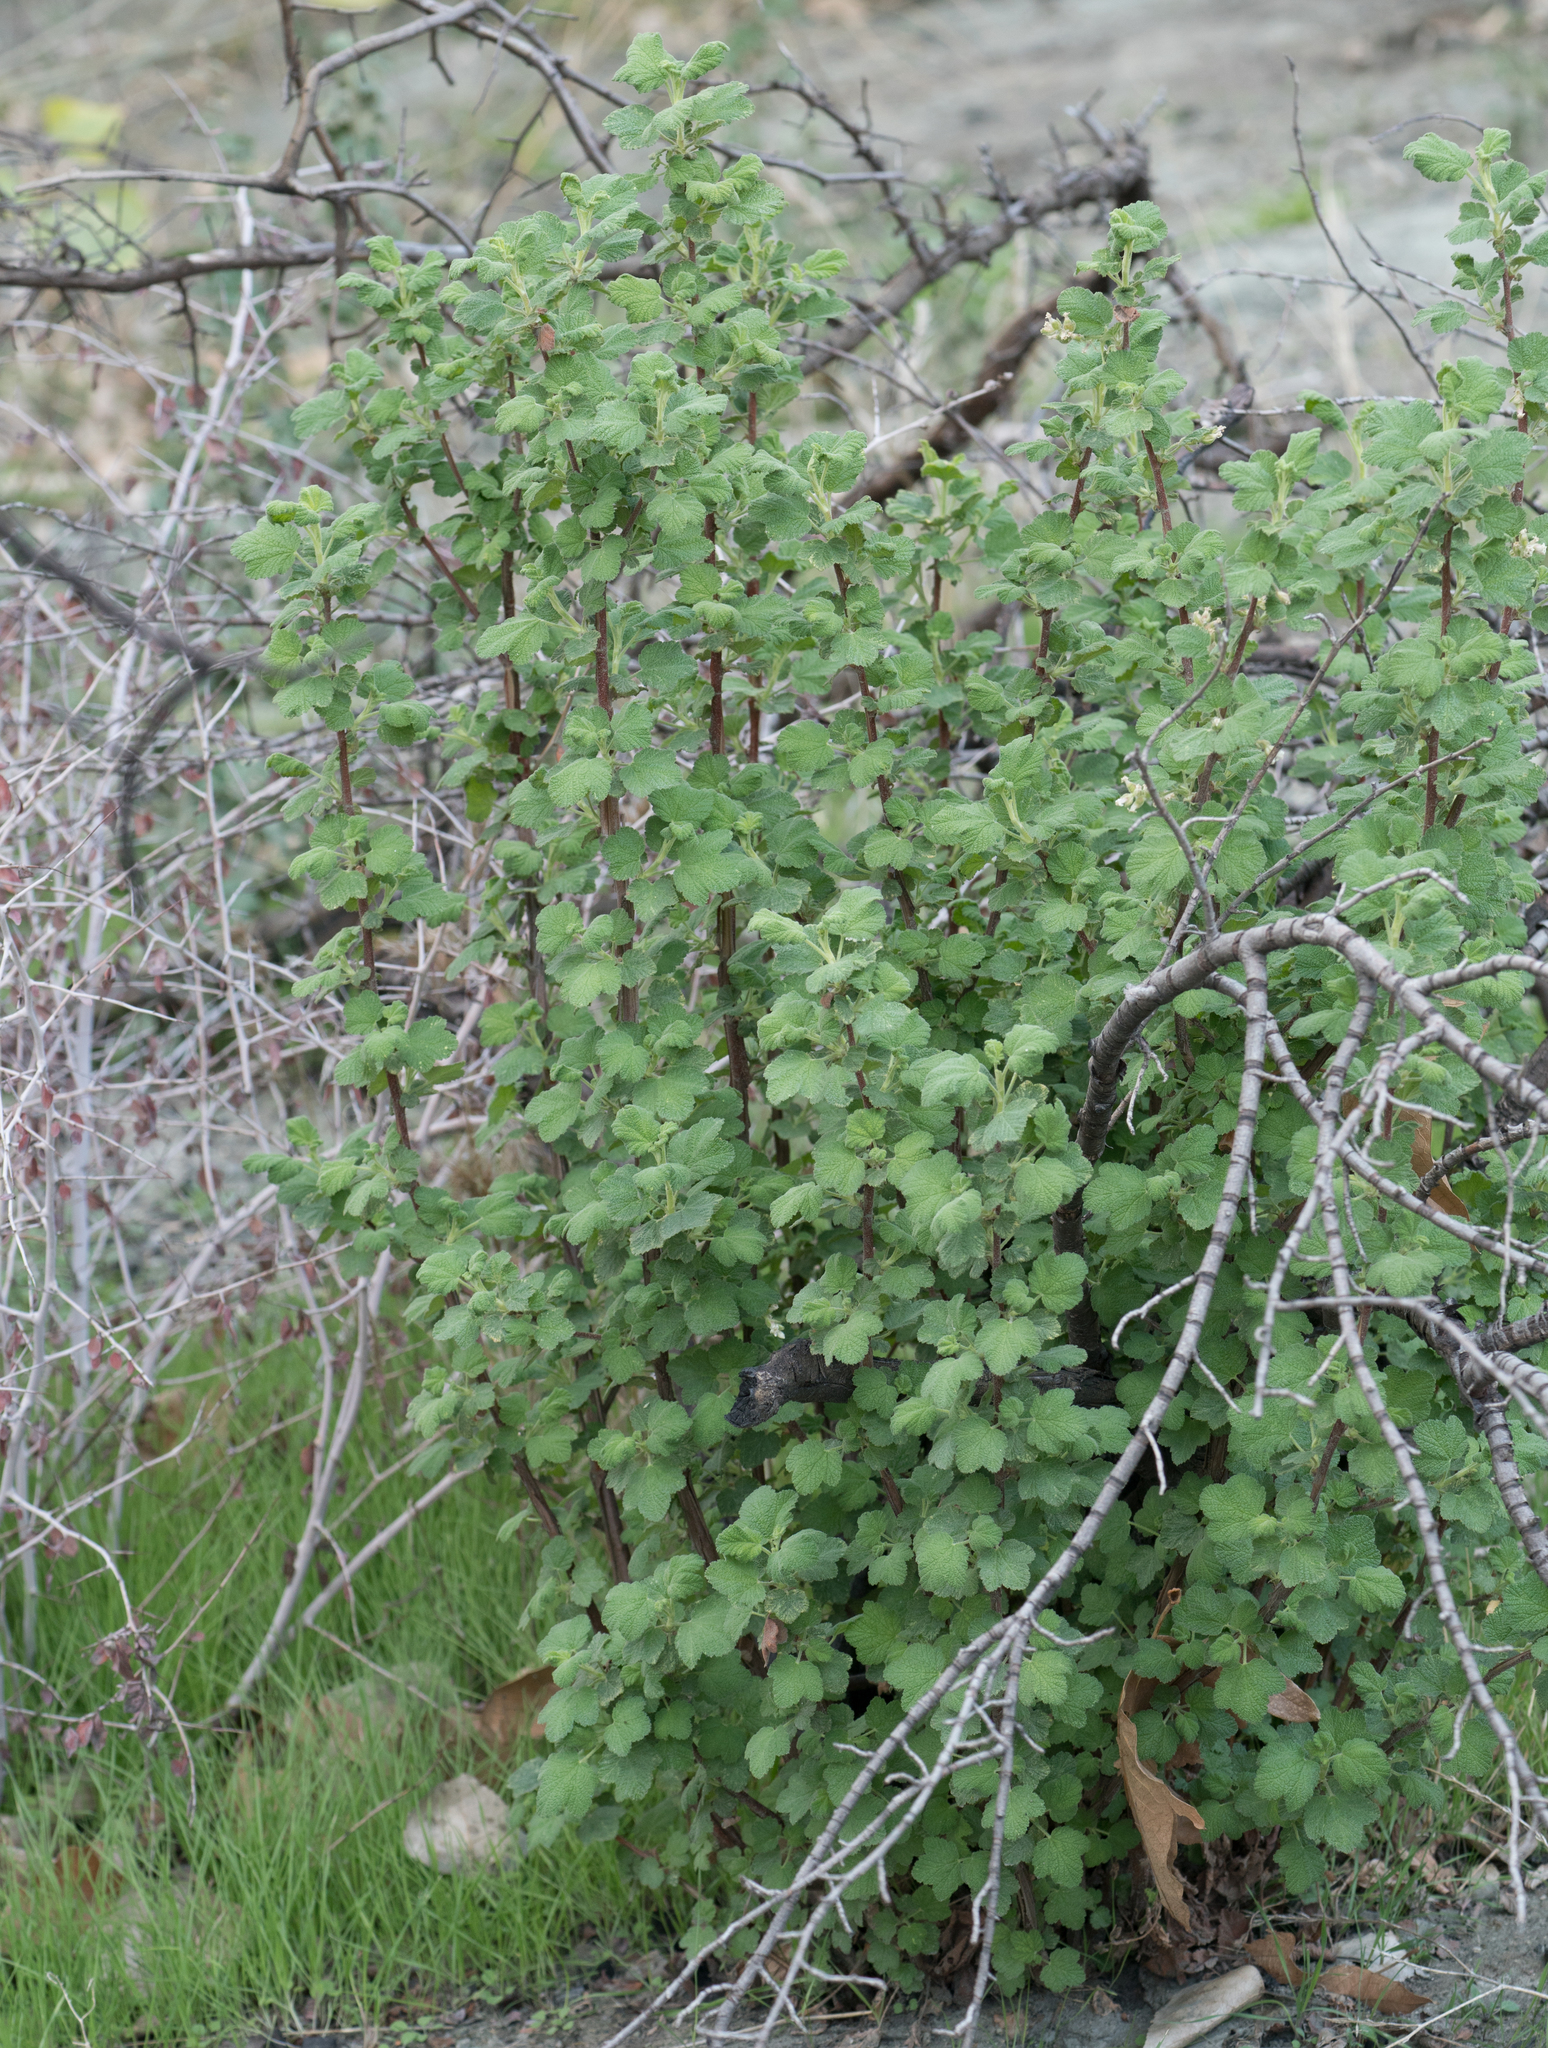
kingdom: Plantae
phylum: Tracheophyta
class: Magnoliopsida
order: Saxifragales
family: Grossulariaceae
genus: Ribes
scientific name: Ribes indecorum
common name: White-flower currant
